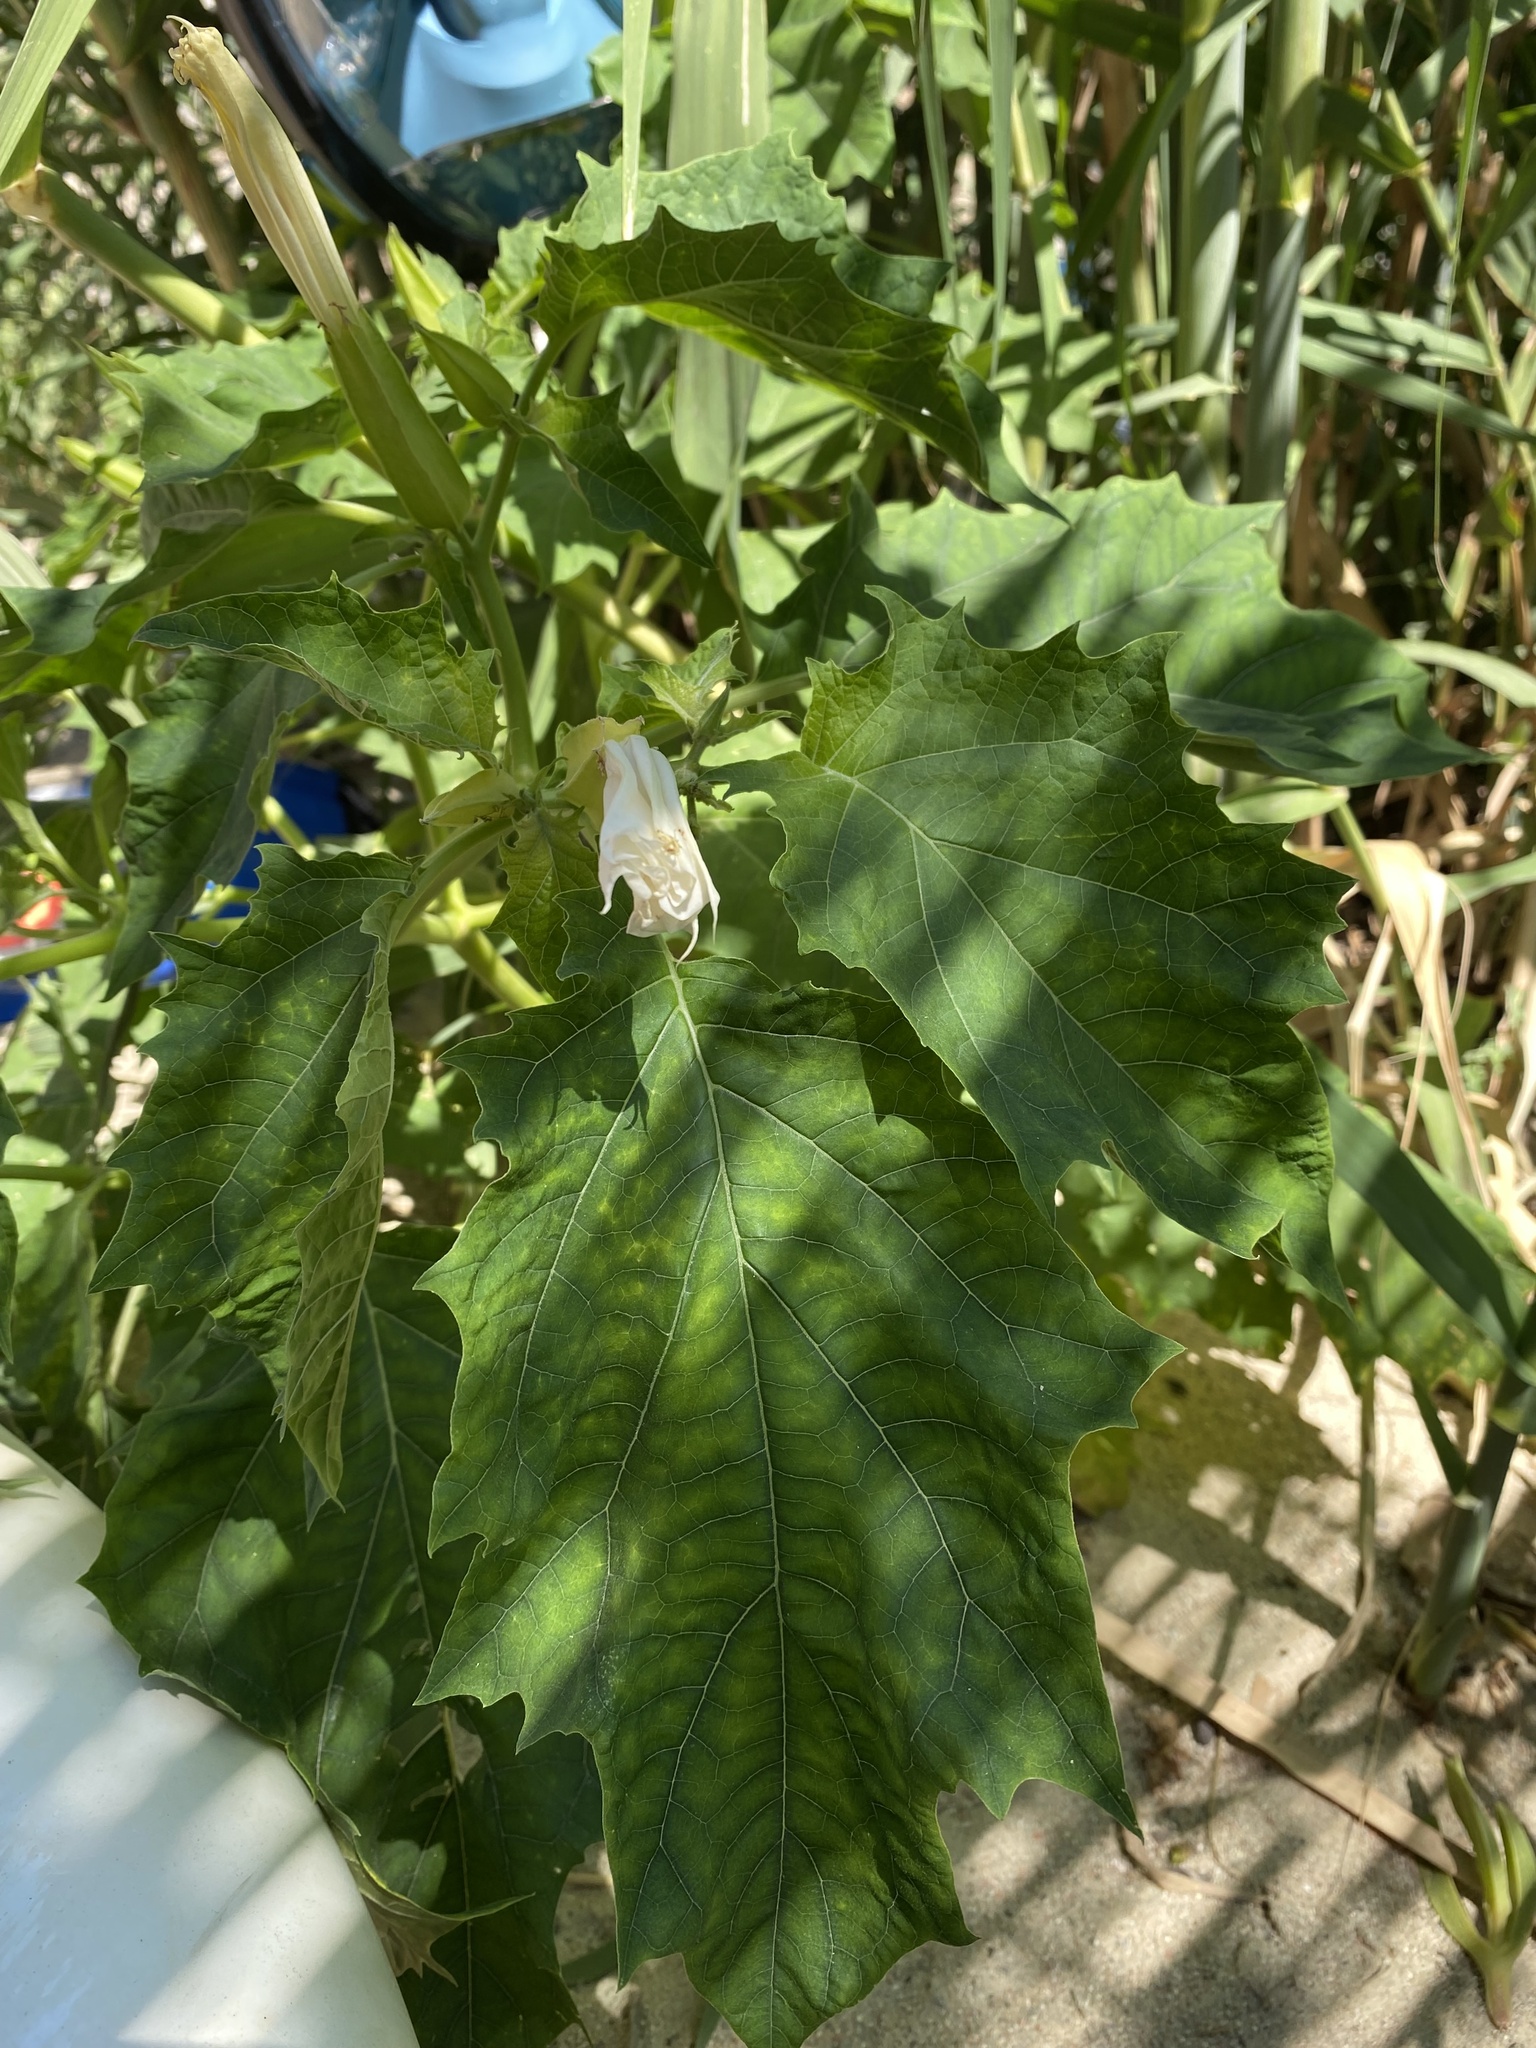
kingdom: Plantae
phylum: Tracheophyta
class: Magnoliopsida
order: Solanales
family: Solanaceae
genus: Datura
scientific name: Datura stramonium
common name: Thorn-apple
